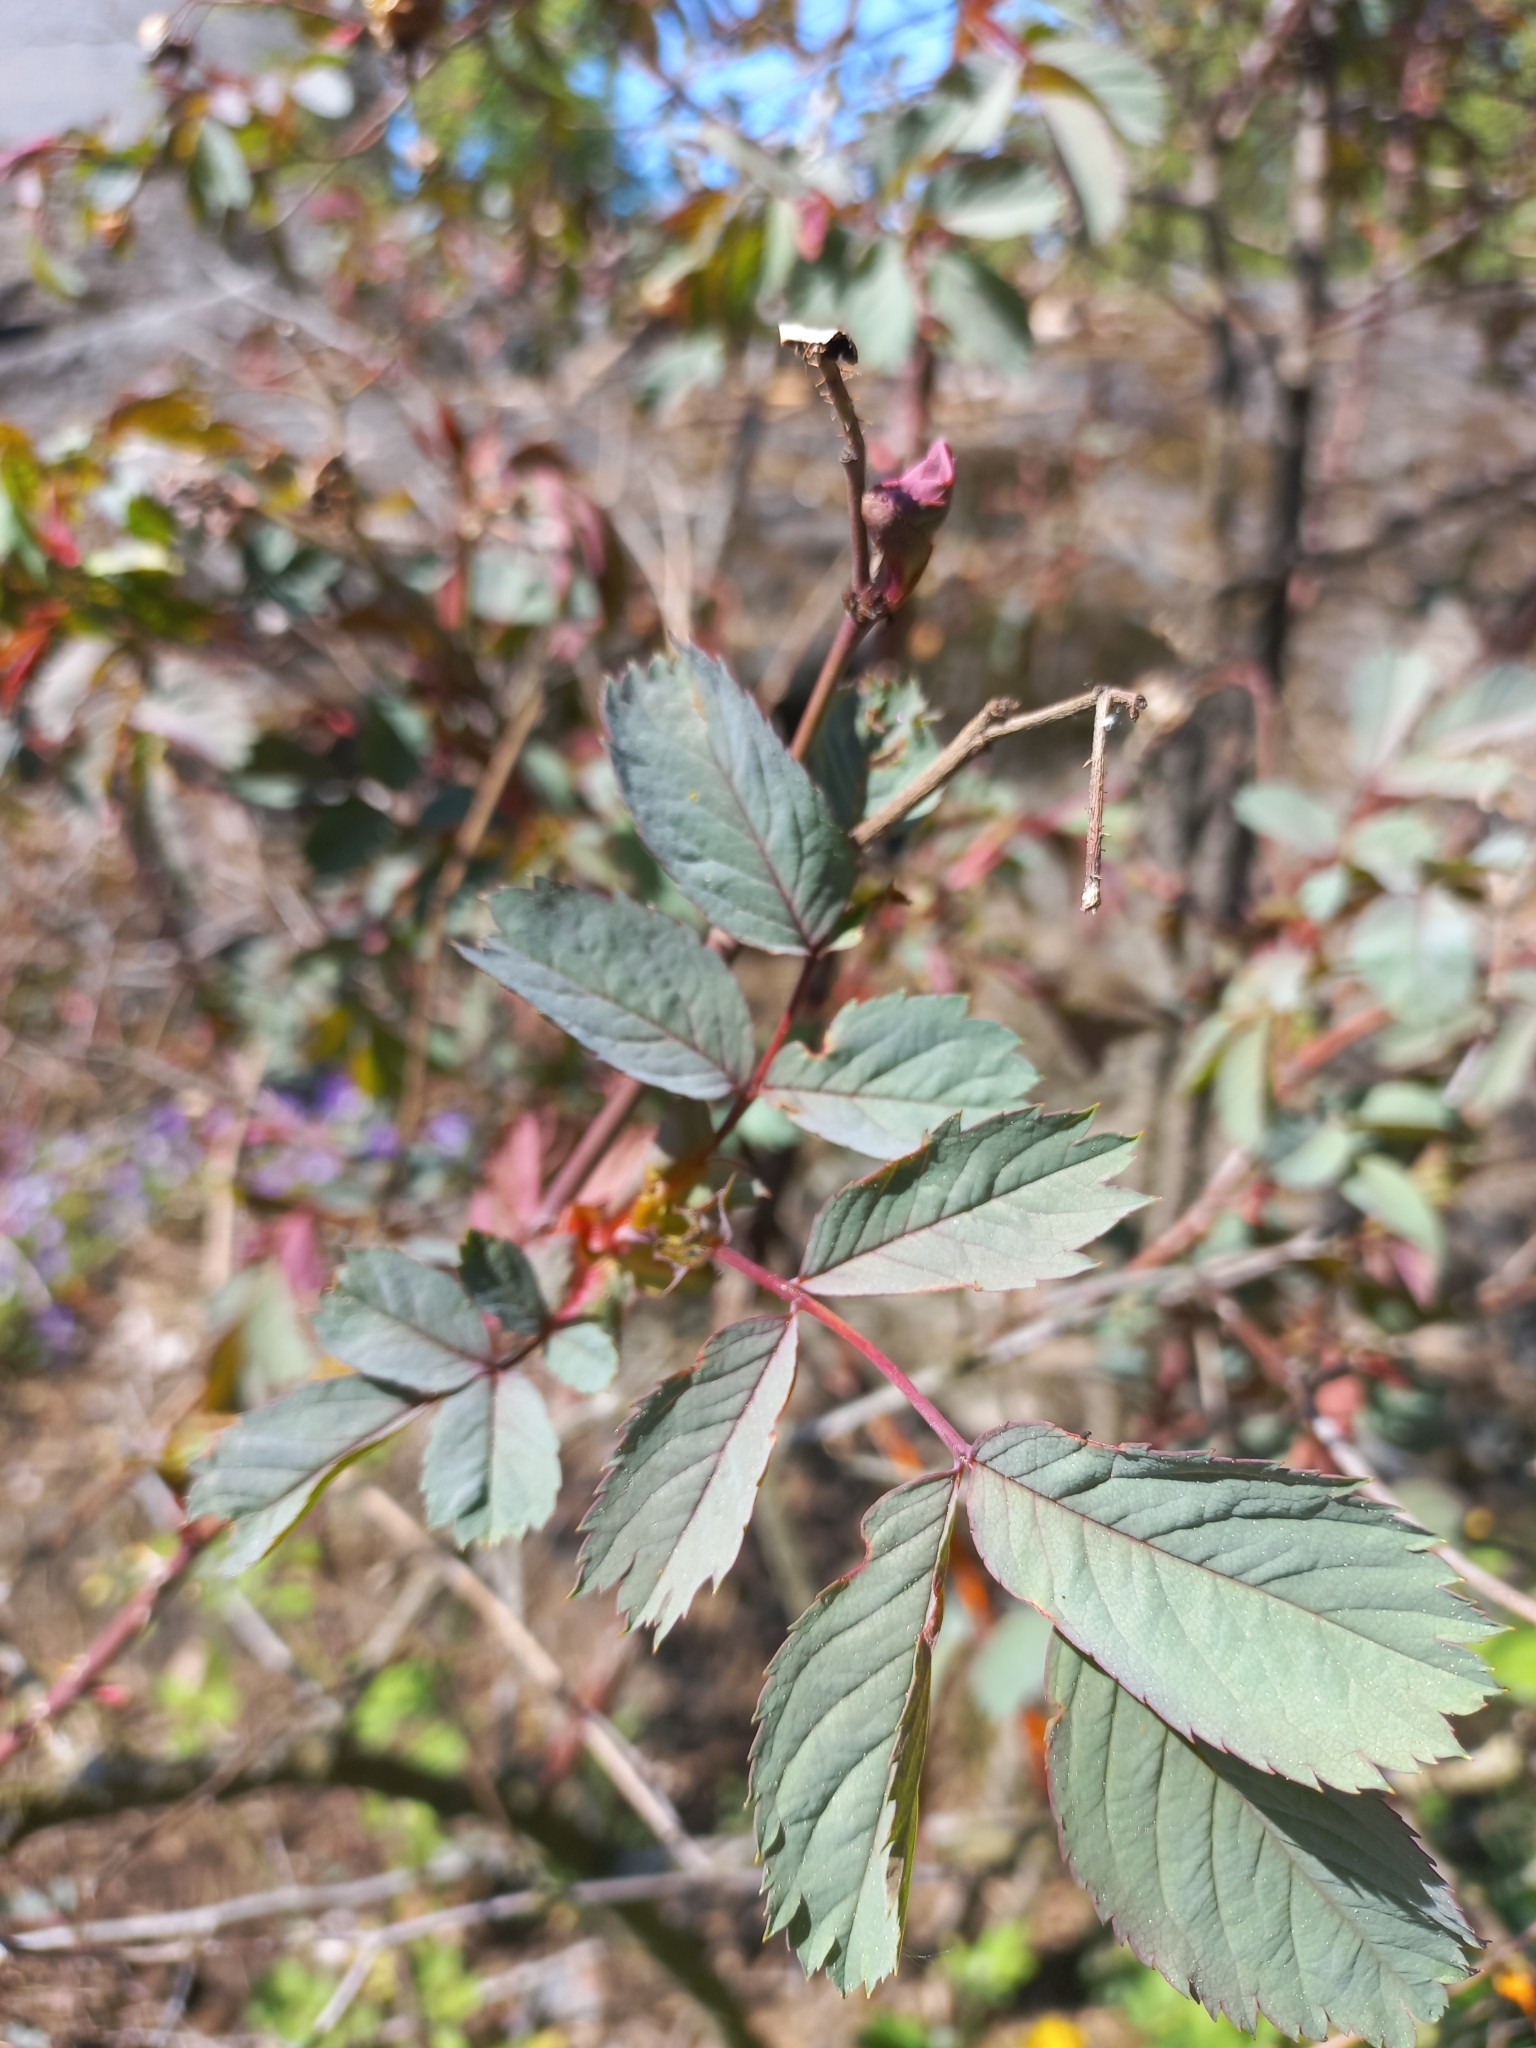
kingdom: Plantae
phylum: Tracheophyta
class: Magnoliopsida
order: Rosales
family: Rosaceae
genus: Rosa
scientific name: Rosa glauca
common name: Redleaf rose
